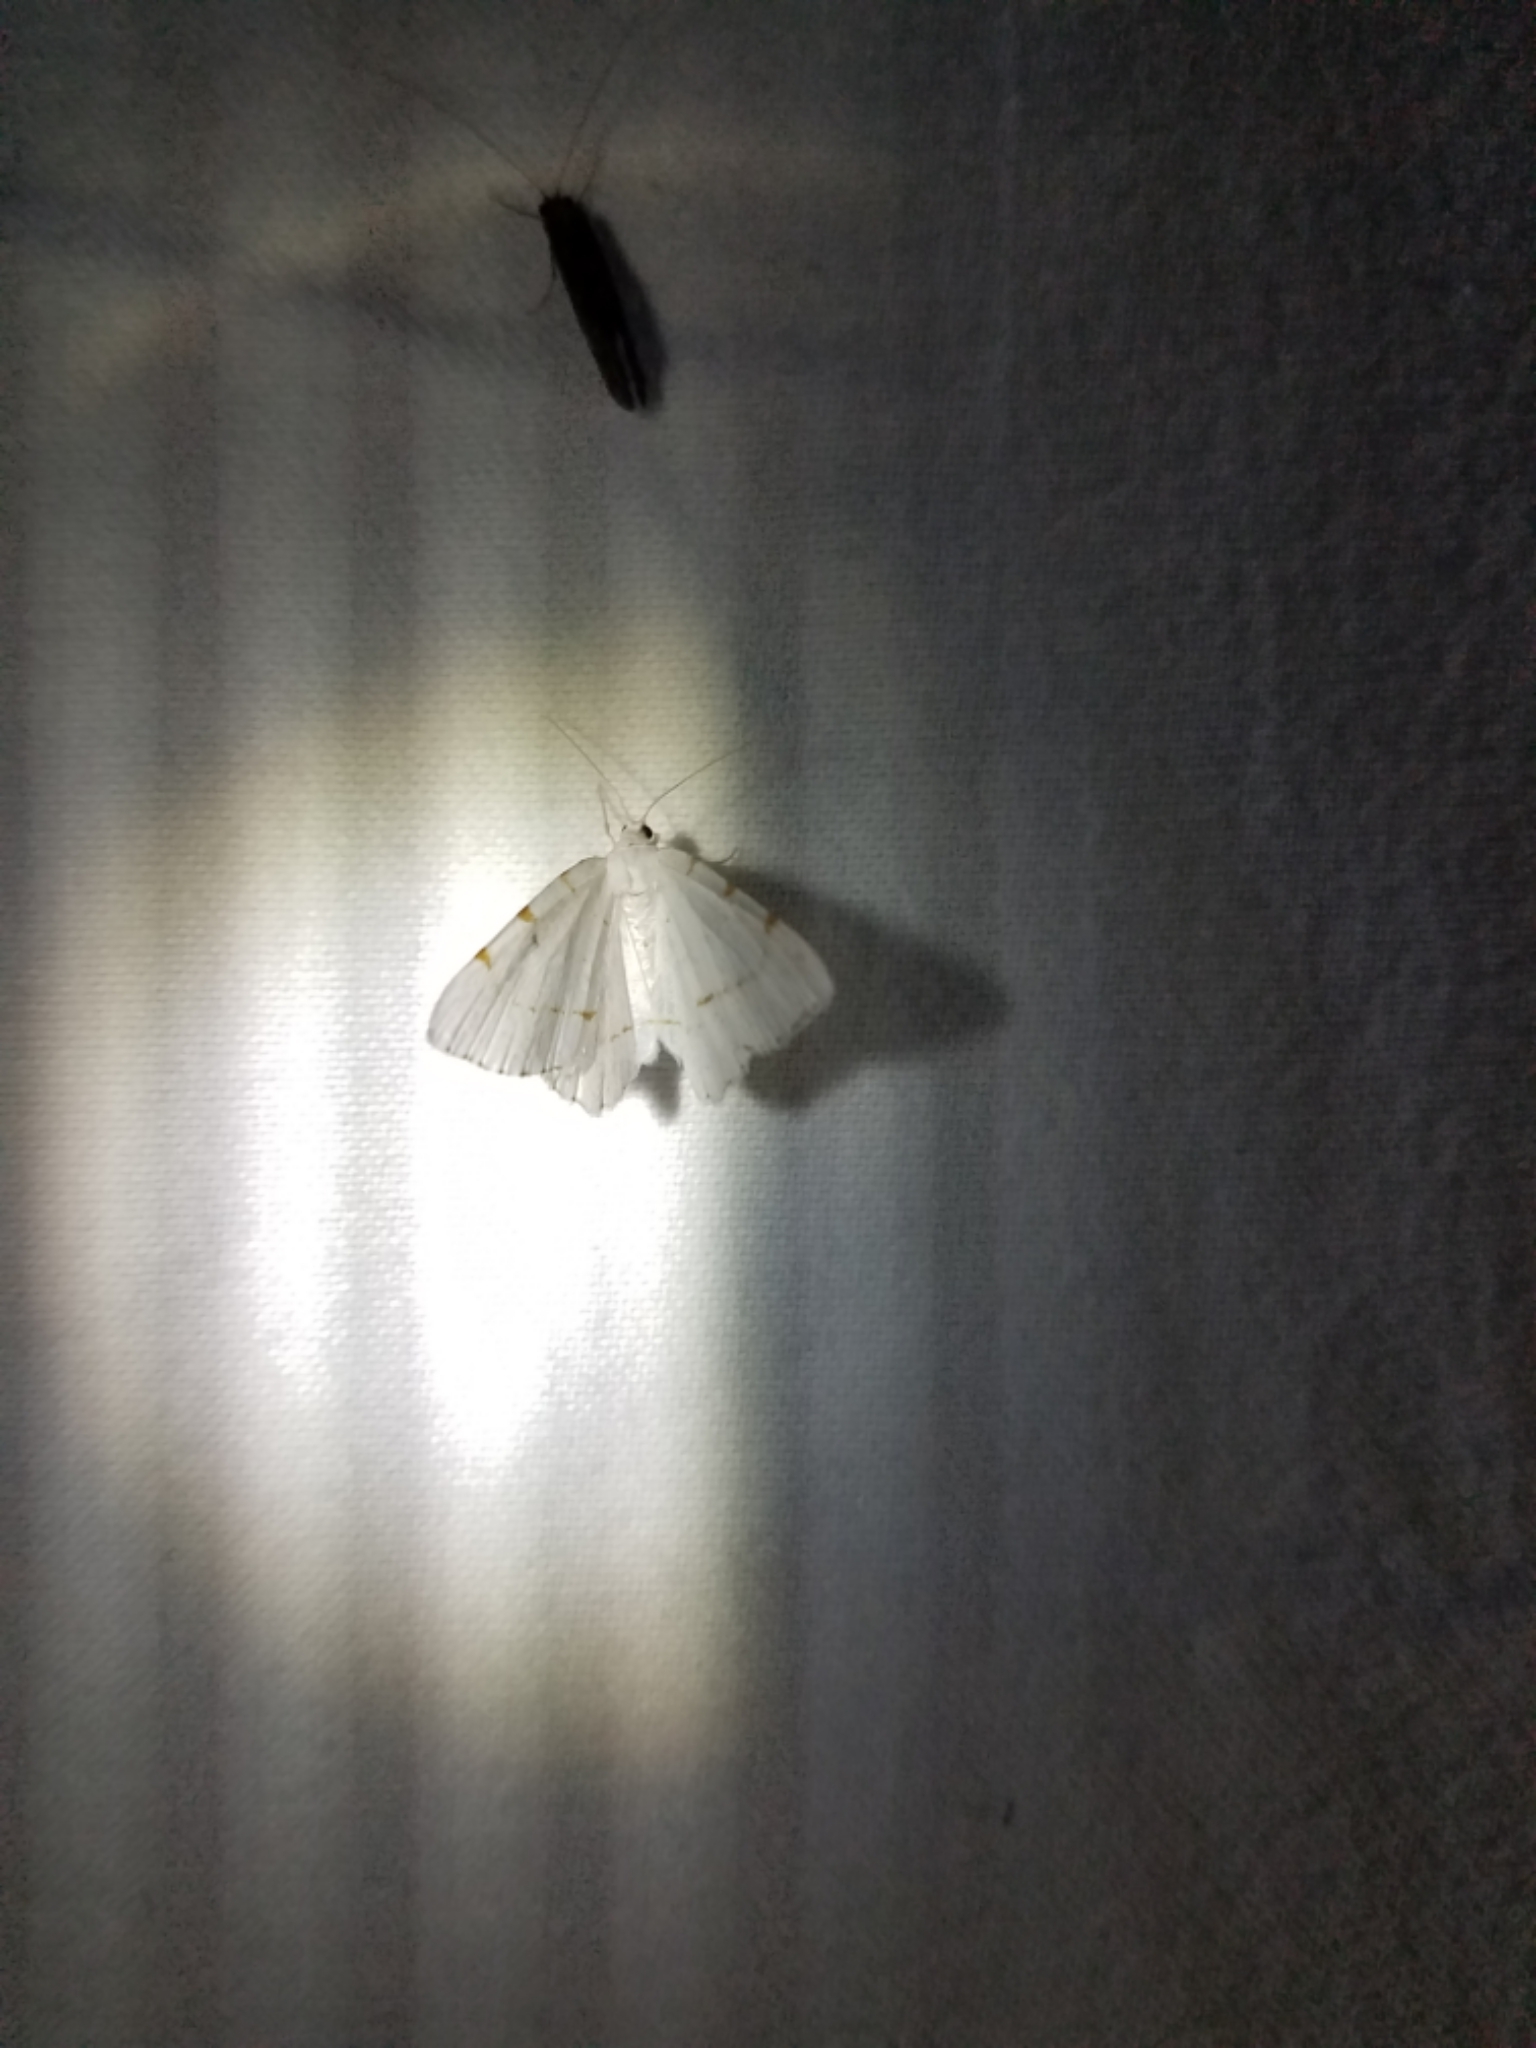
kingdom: Animalia
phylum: Arthropoda
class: Insecta
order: Lepidoptera
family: Geometridae
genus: Macaria
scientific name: Macaria pustularia
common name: Lesser maple spanworm moth
